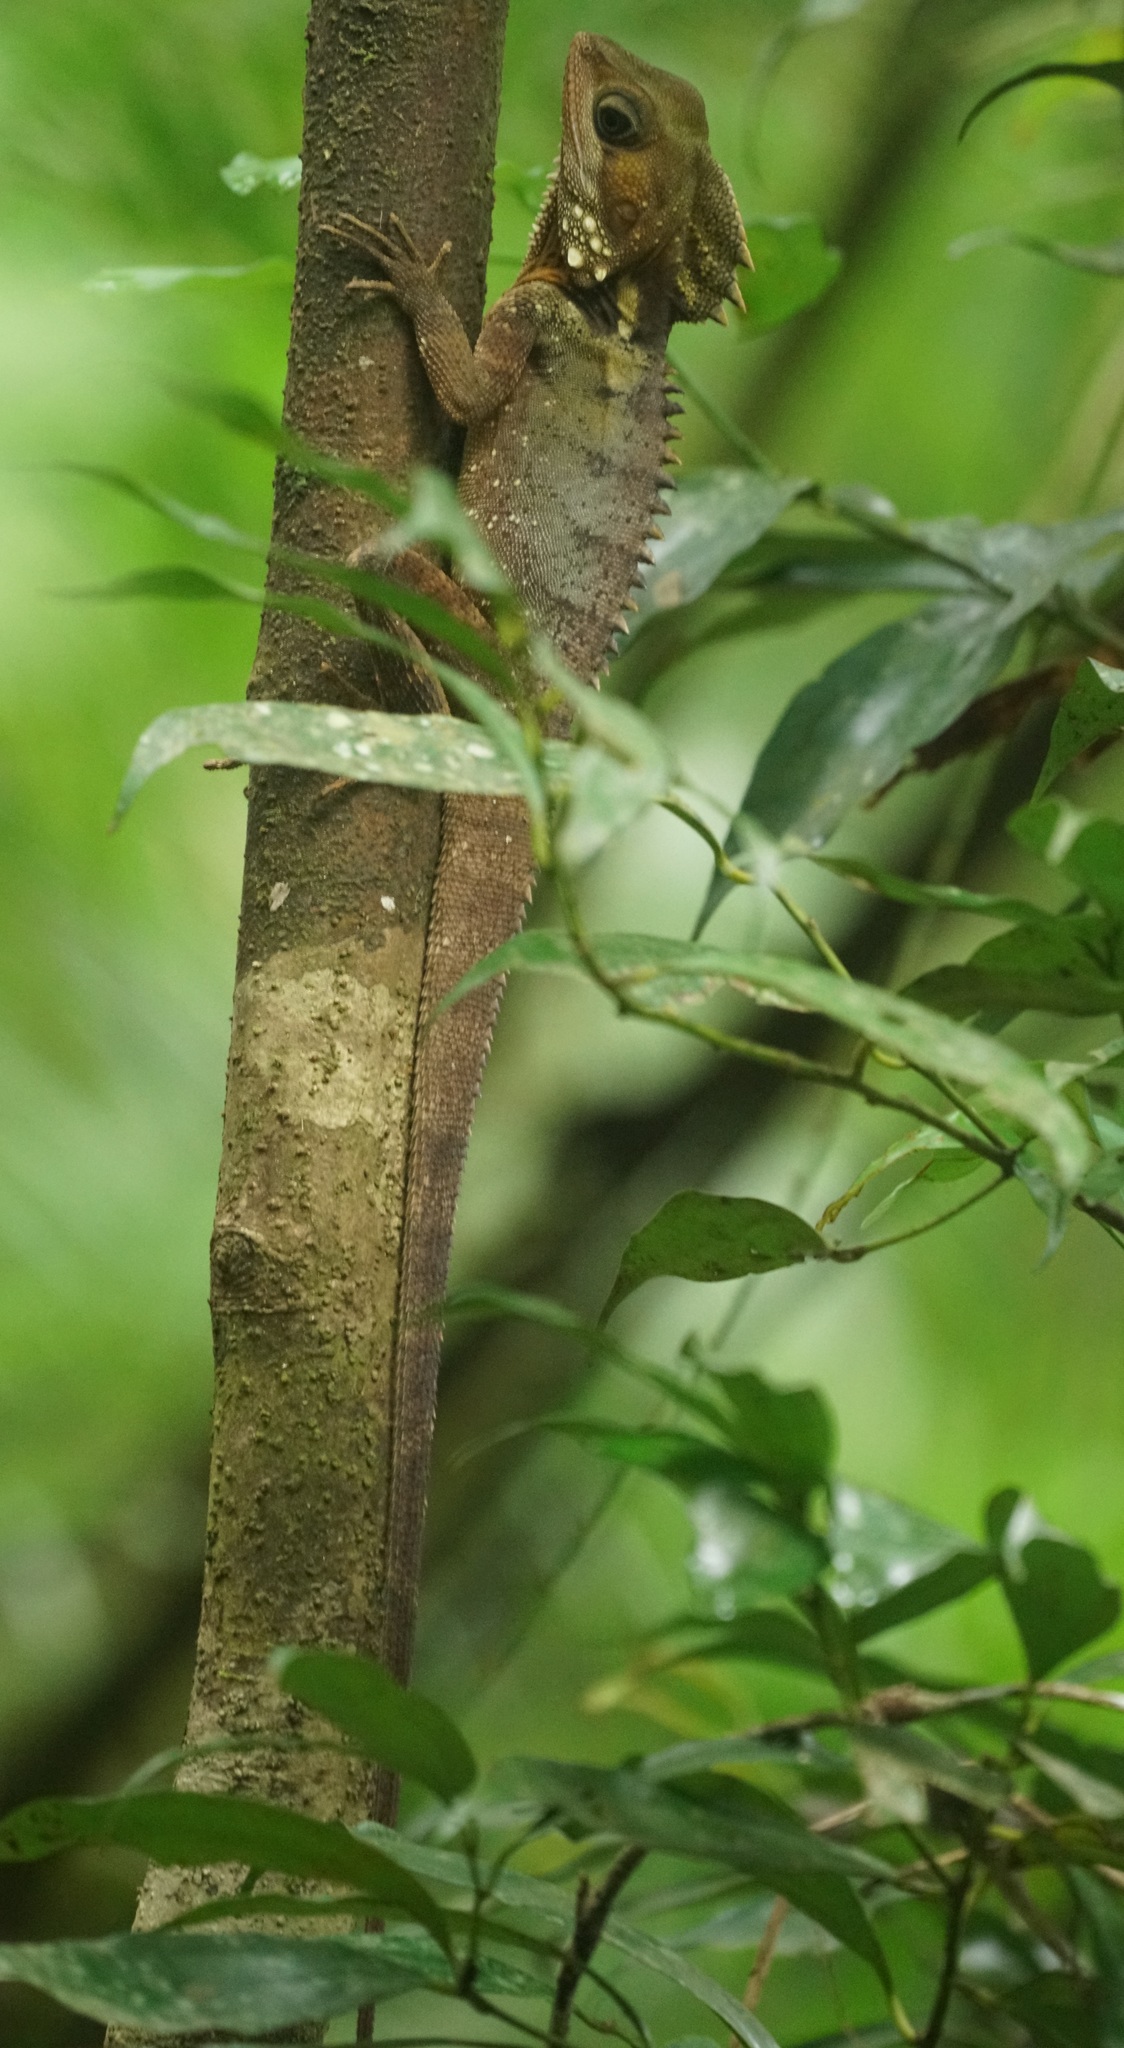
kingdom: Animalia
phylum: Chordata
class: Squamata
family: Agamidae
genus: Lophosaurus
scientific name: Lophosaurus boydii
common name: Boyd's forest dragon
